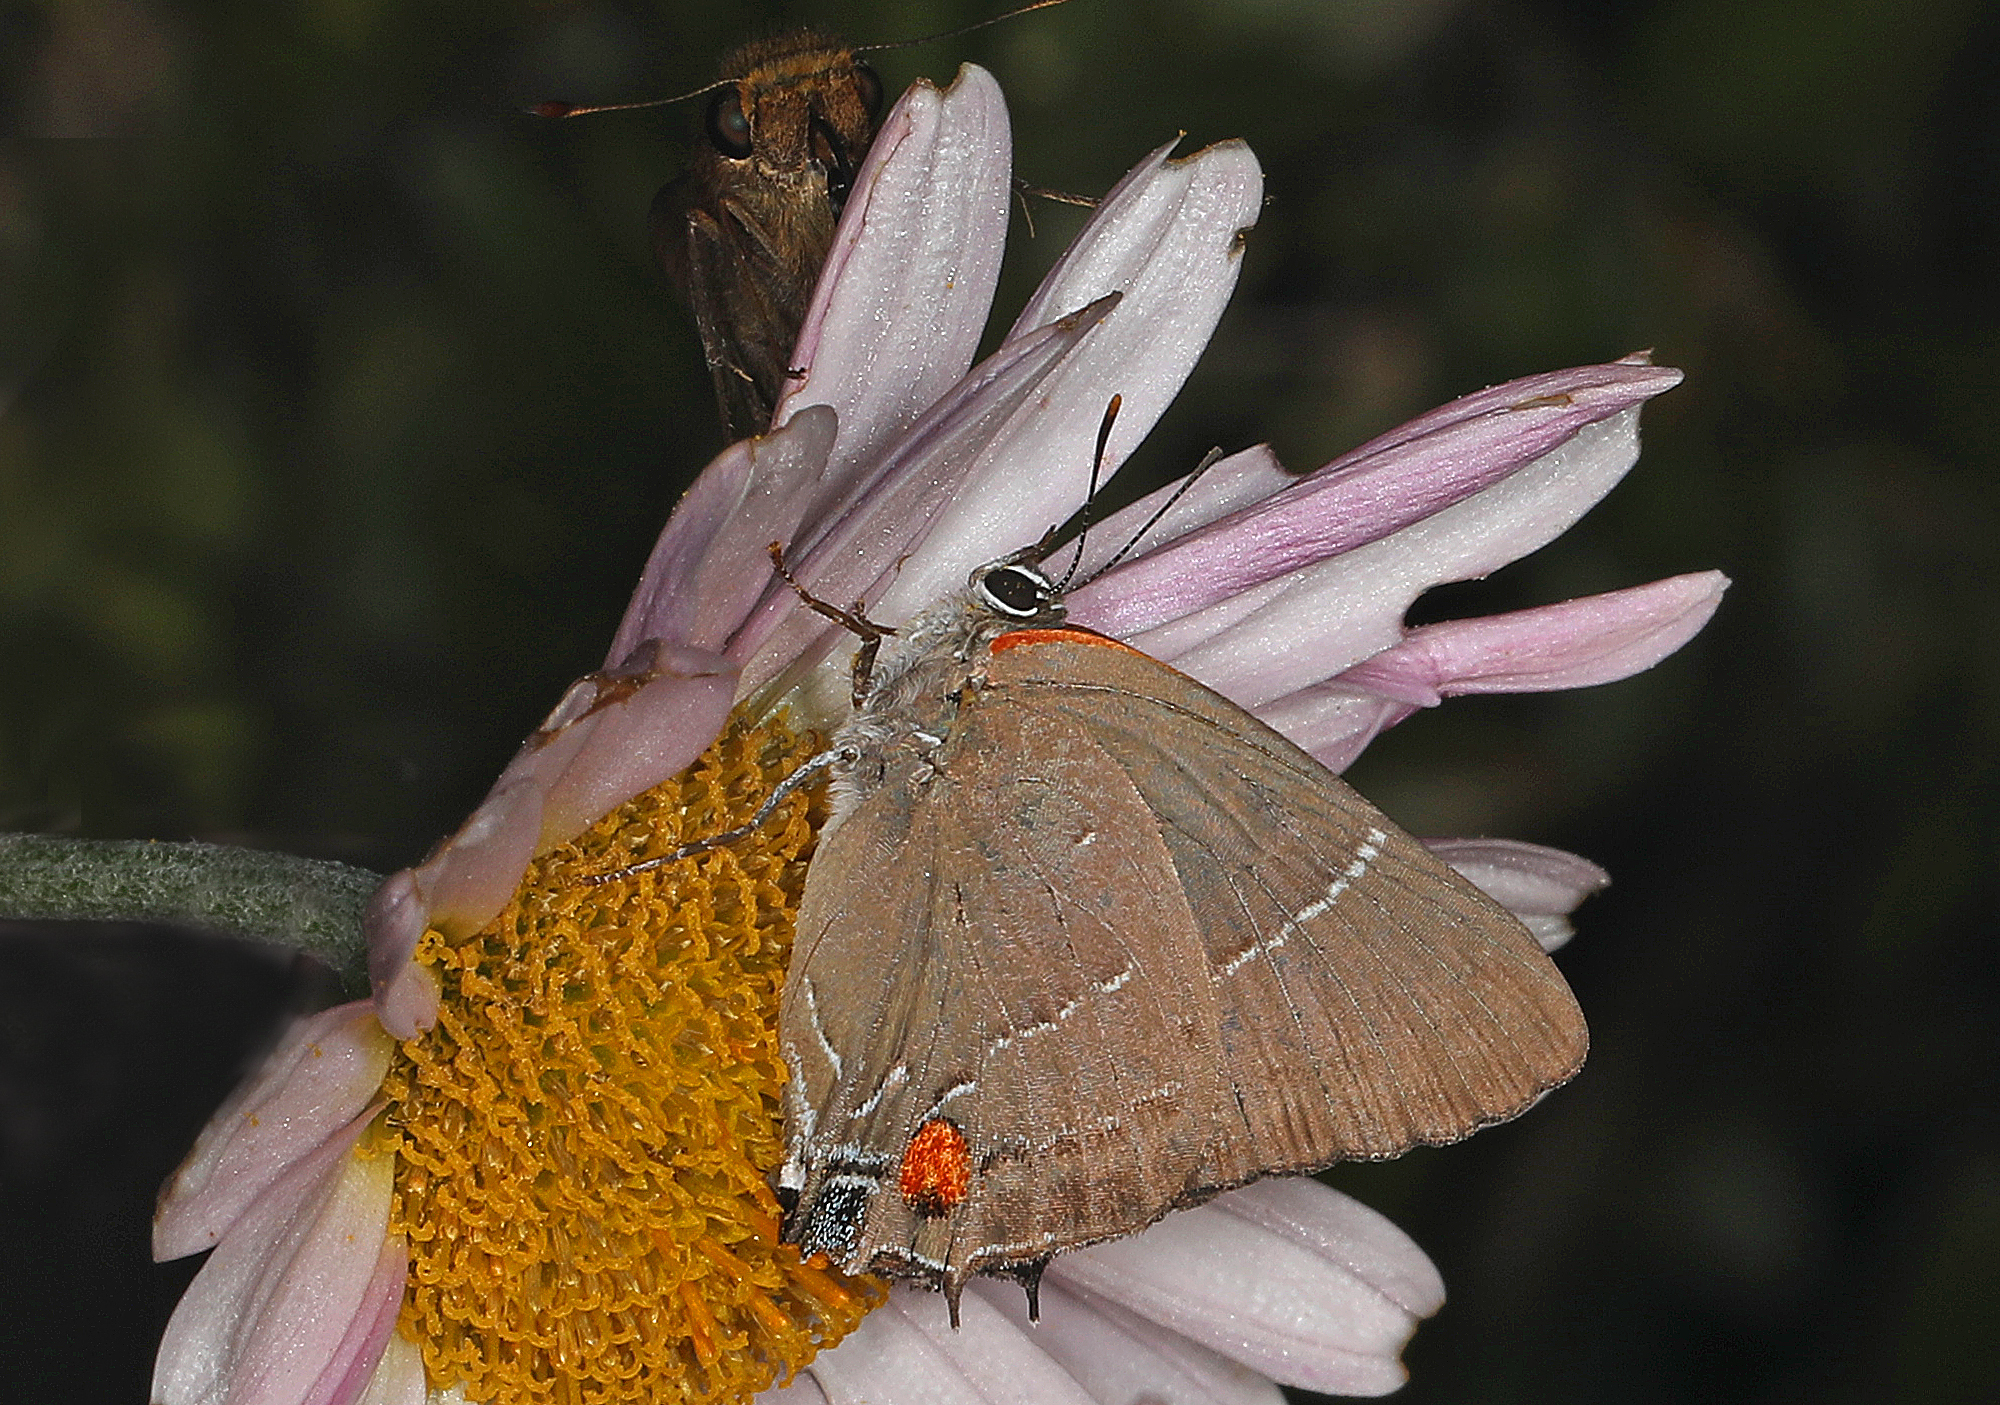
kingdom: Animalia
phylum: Arthropoda
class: Insecta
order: Lepidoptera
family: Lycaenidae
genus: Parrhasius
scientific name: Parrhasius m-album
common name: White m hairstreak
